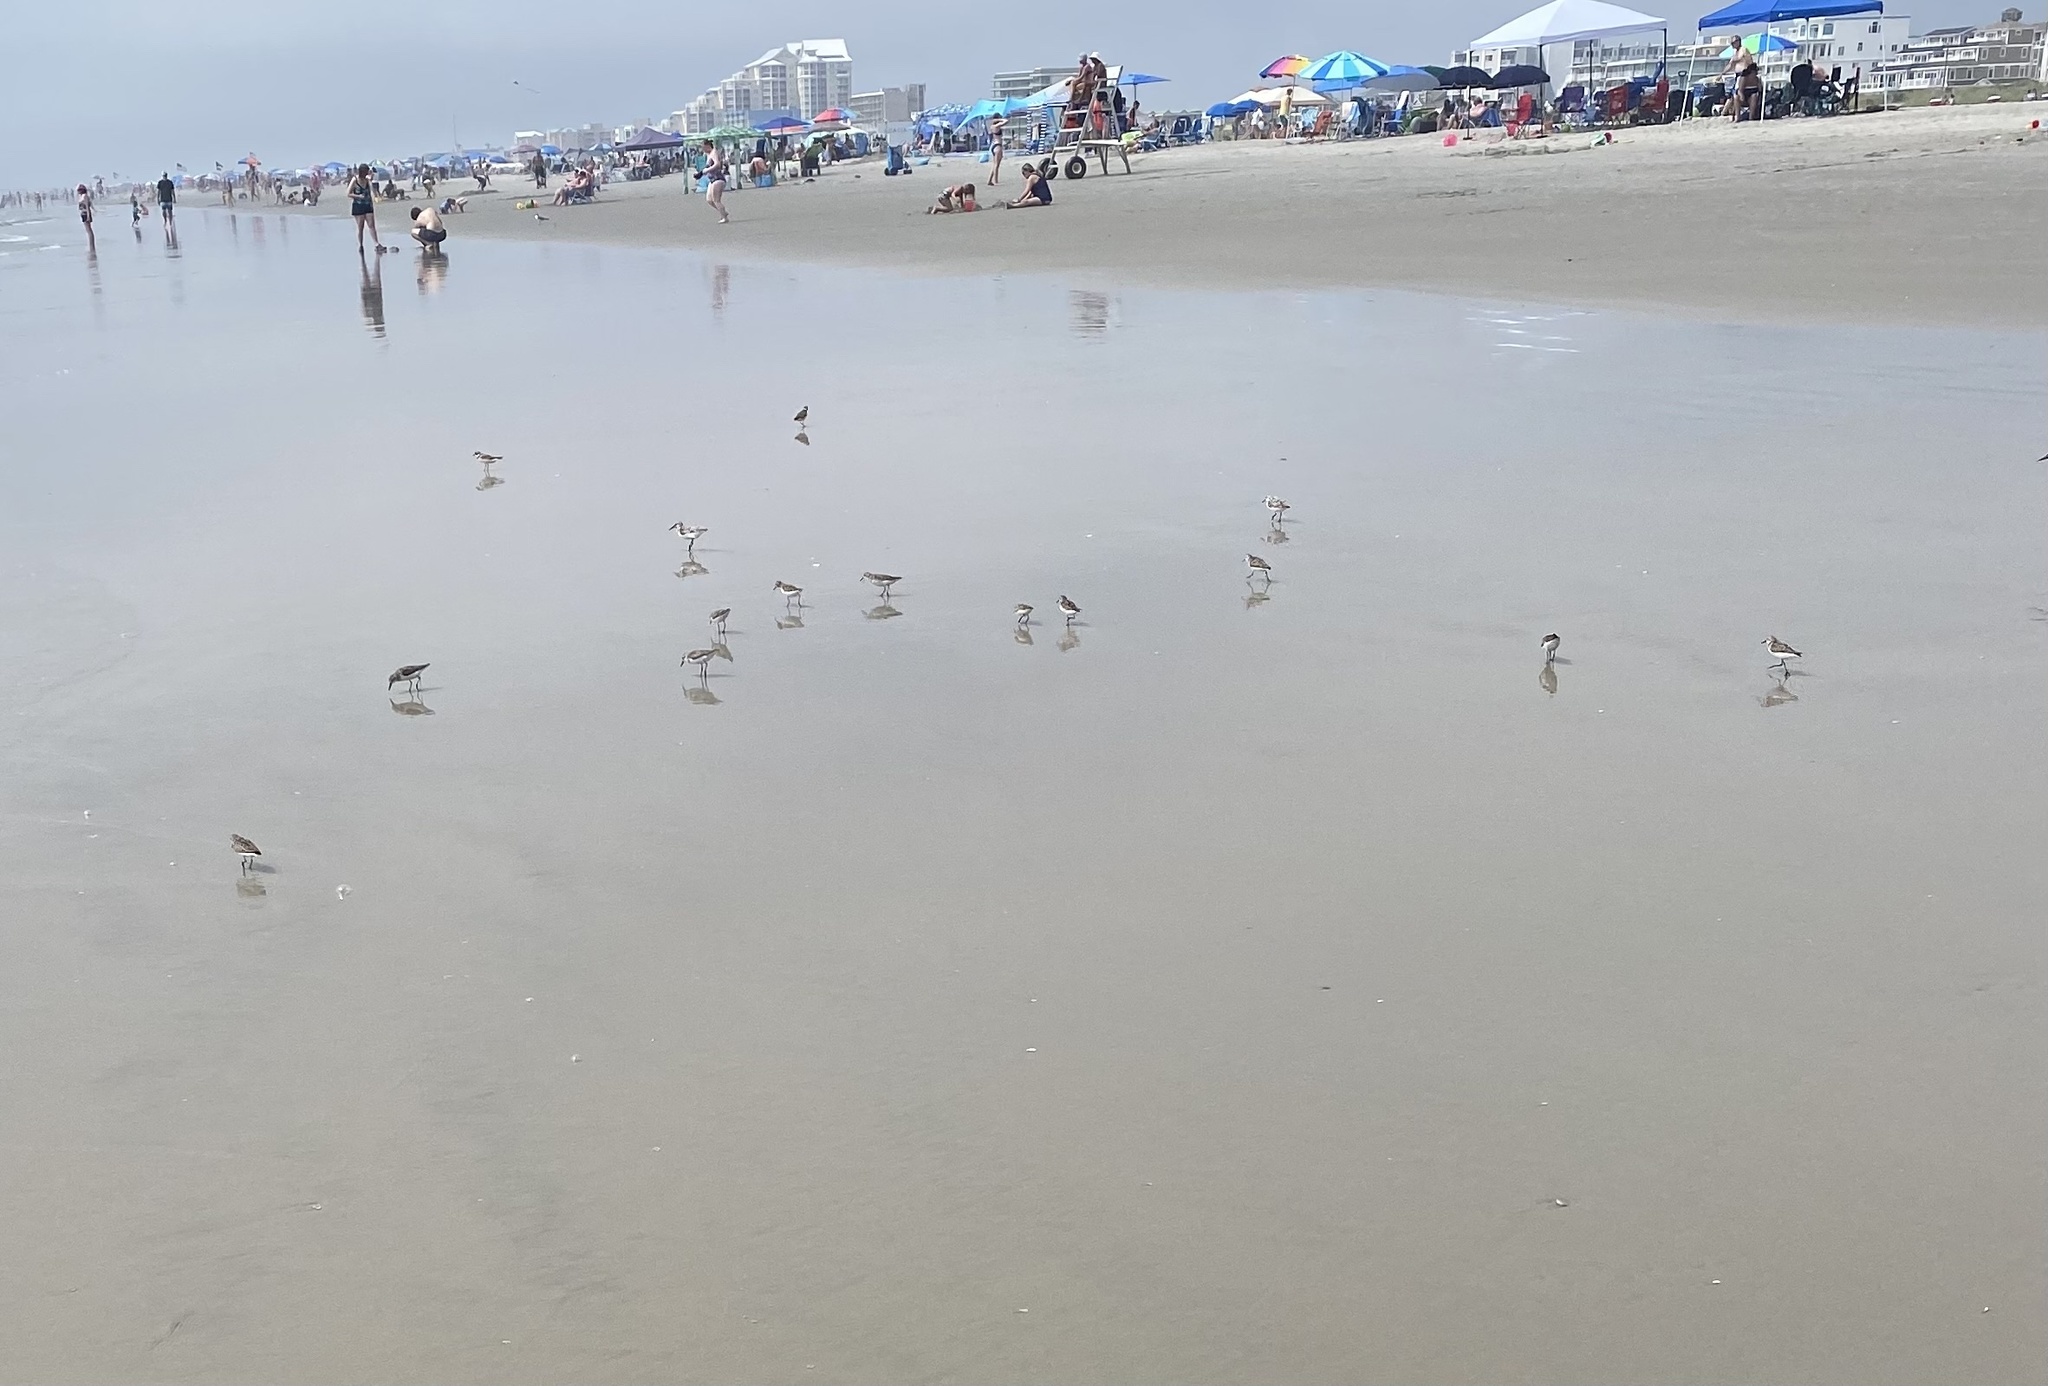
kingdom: Animalia
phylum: Chordata
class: Aves
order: Charadriiformes
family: Scolopacidae
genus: Calidris
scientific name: Calidris alba
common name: Sanderling
